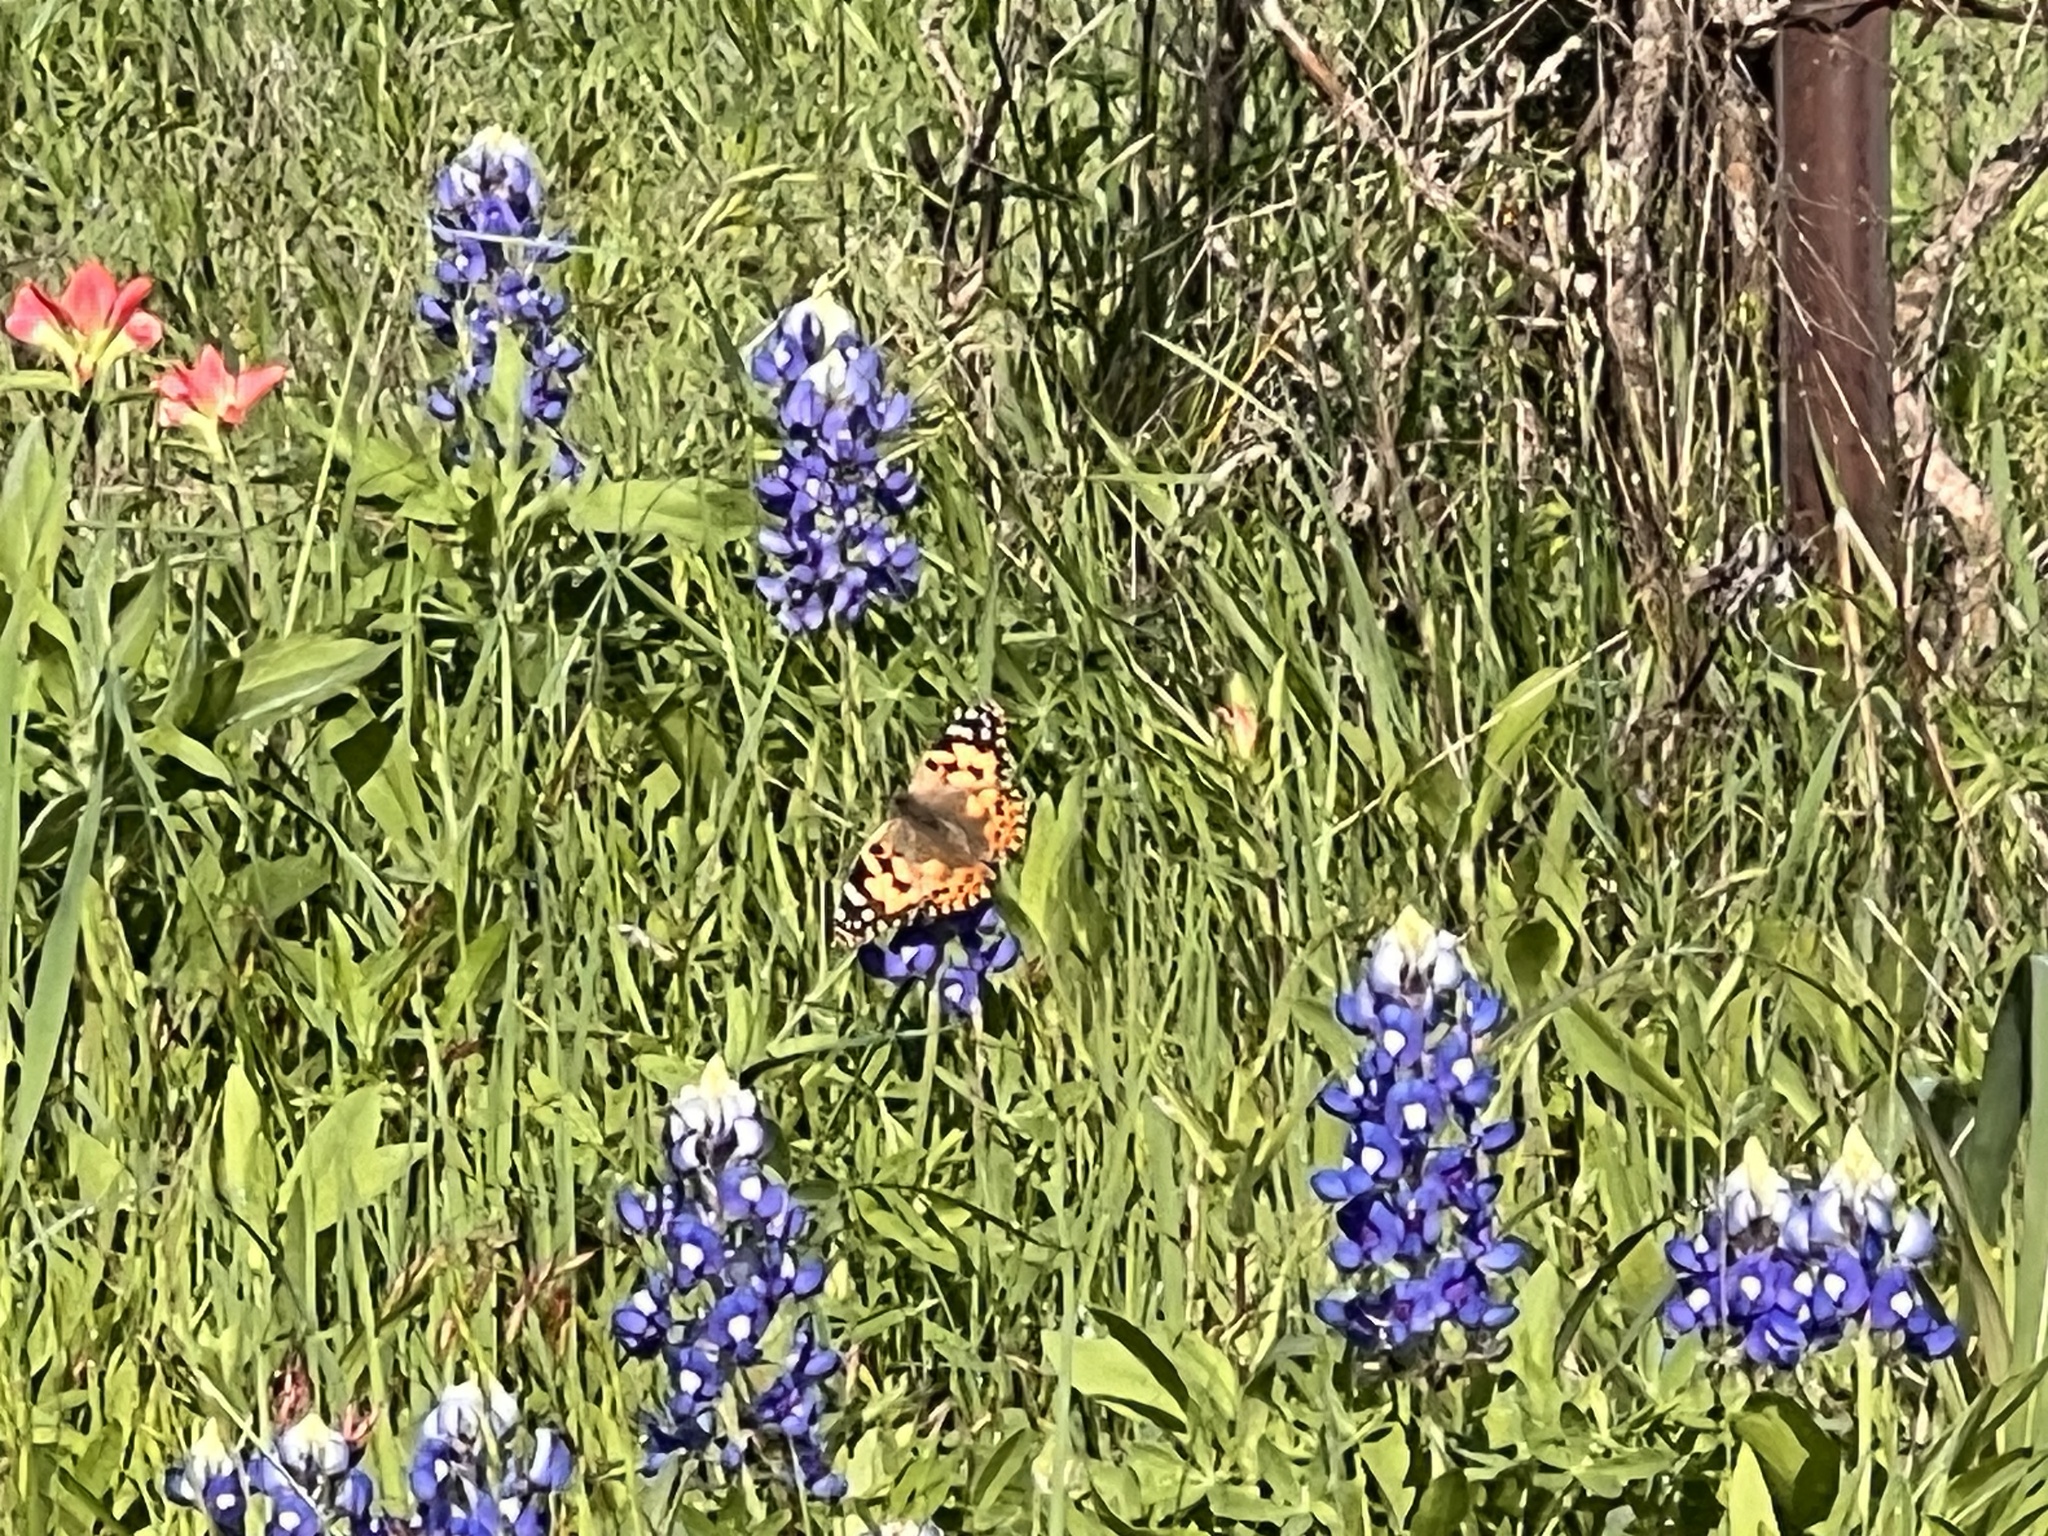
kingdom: Animalia
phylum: Arthropoda
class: Insecta
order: Lepidoptera
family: Nymphalidae
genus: Vanessa
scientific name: Vanessa cardui
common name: Painted lady
